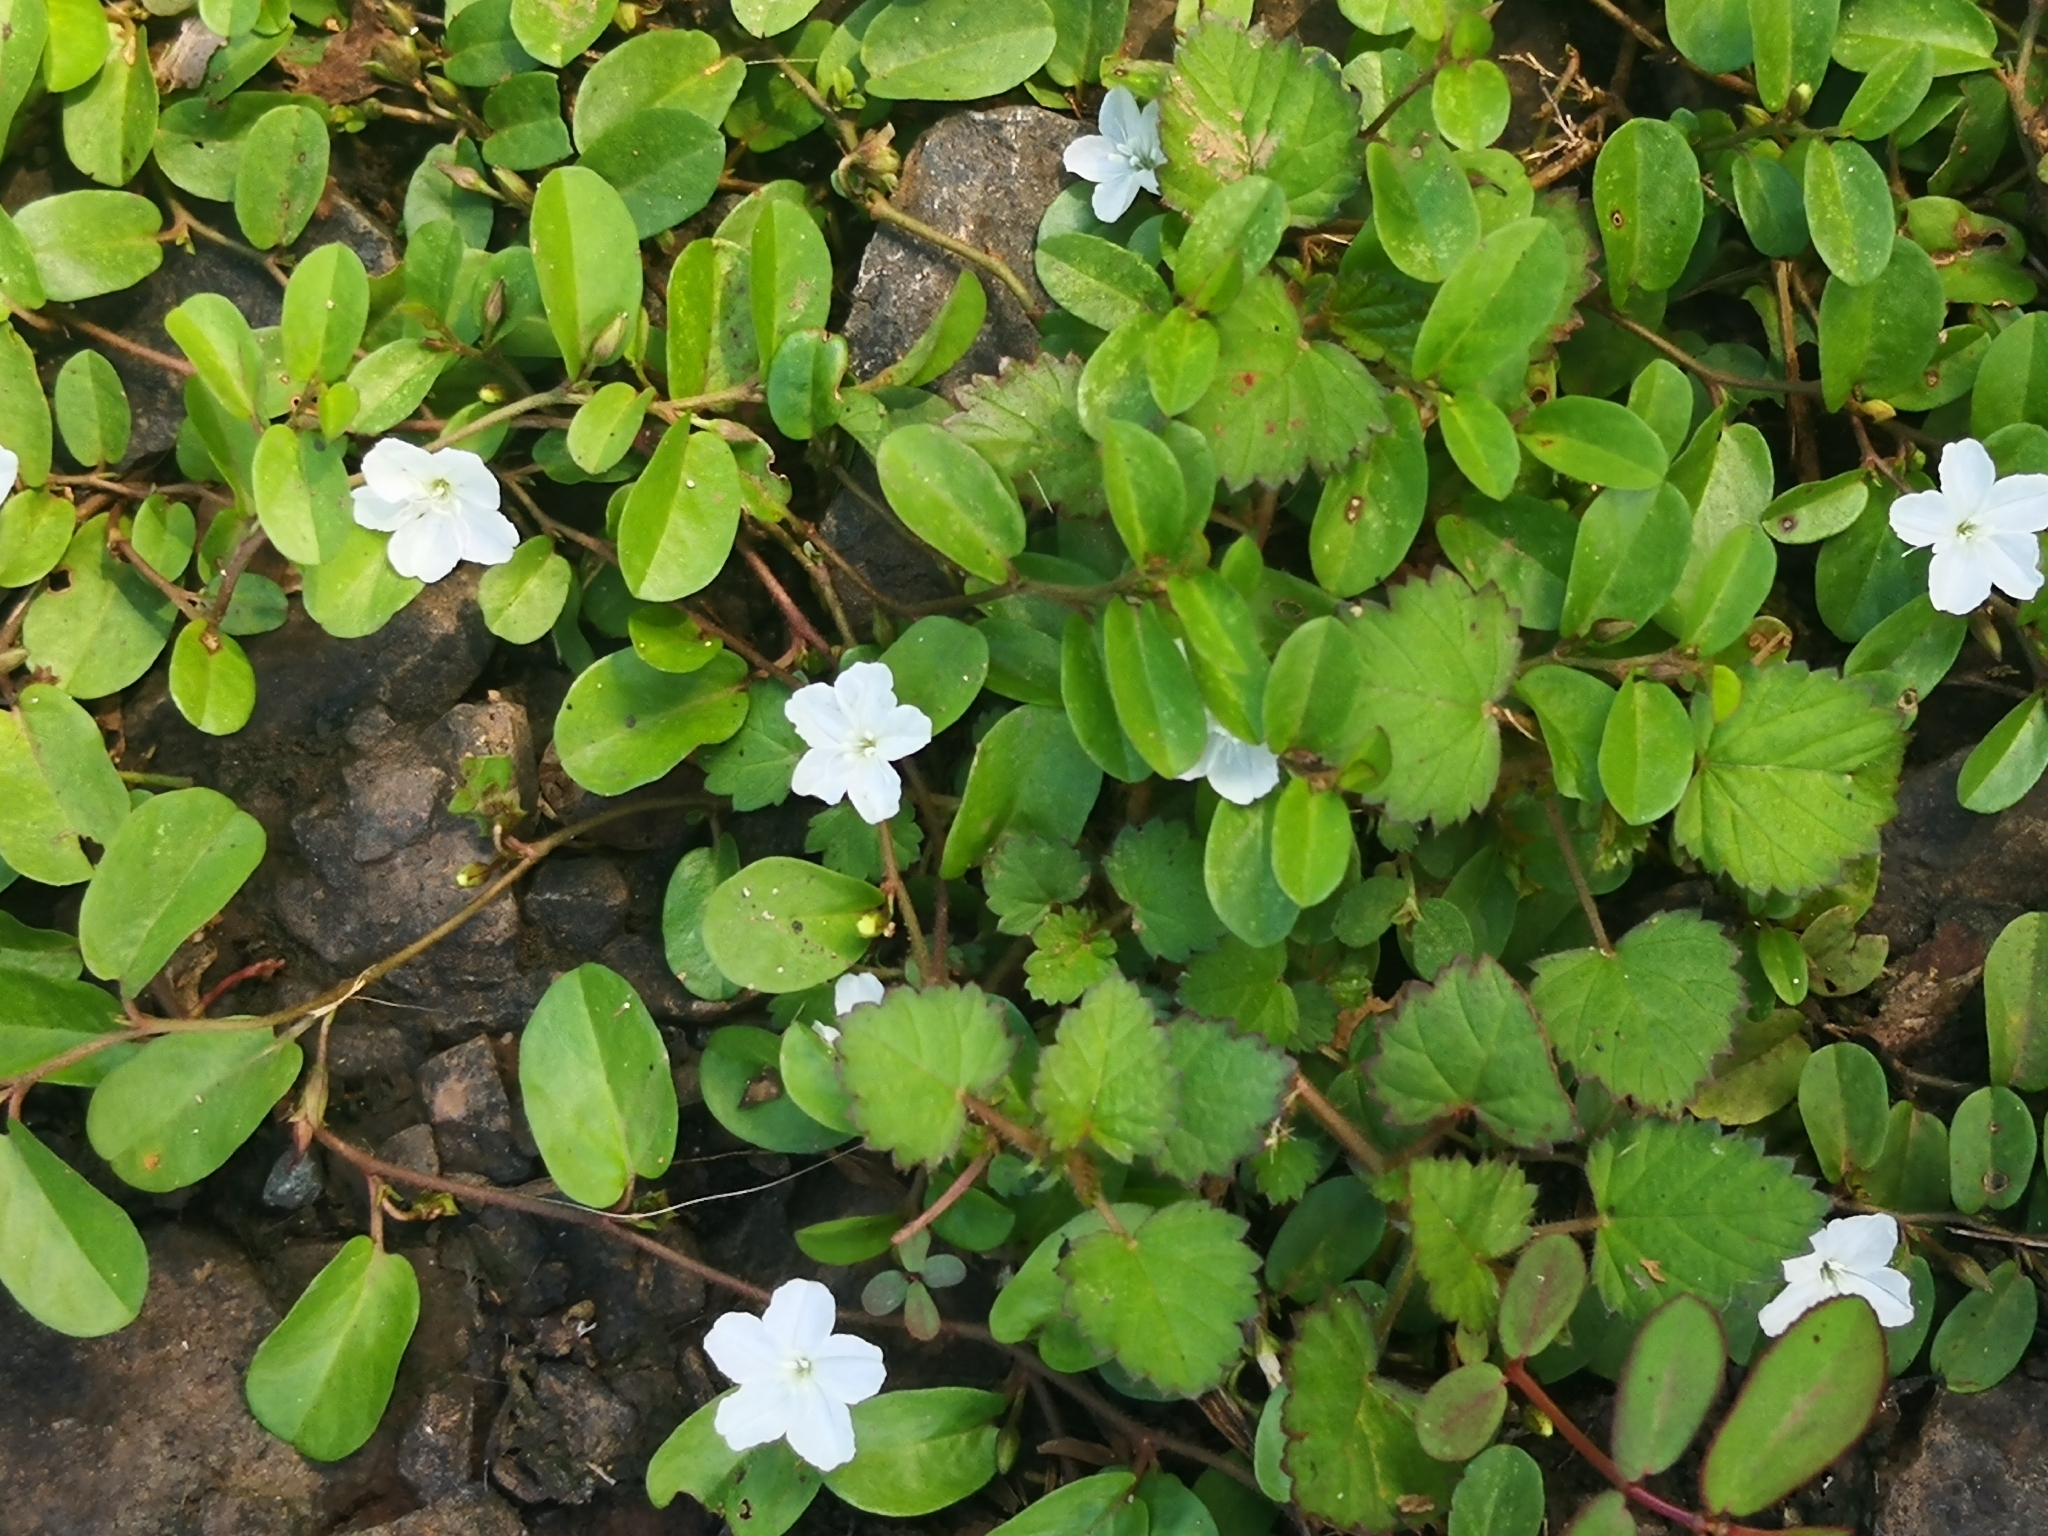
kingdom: Plantae
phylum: Tracheophyta
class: Magnoliopsida
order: Solanales
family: Convolvulaceae
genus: Evolvulus
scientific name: Evolvulus nummularius
